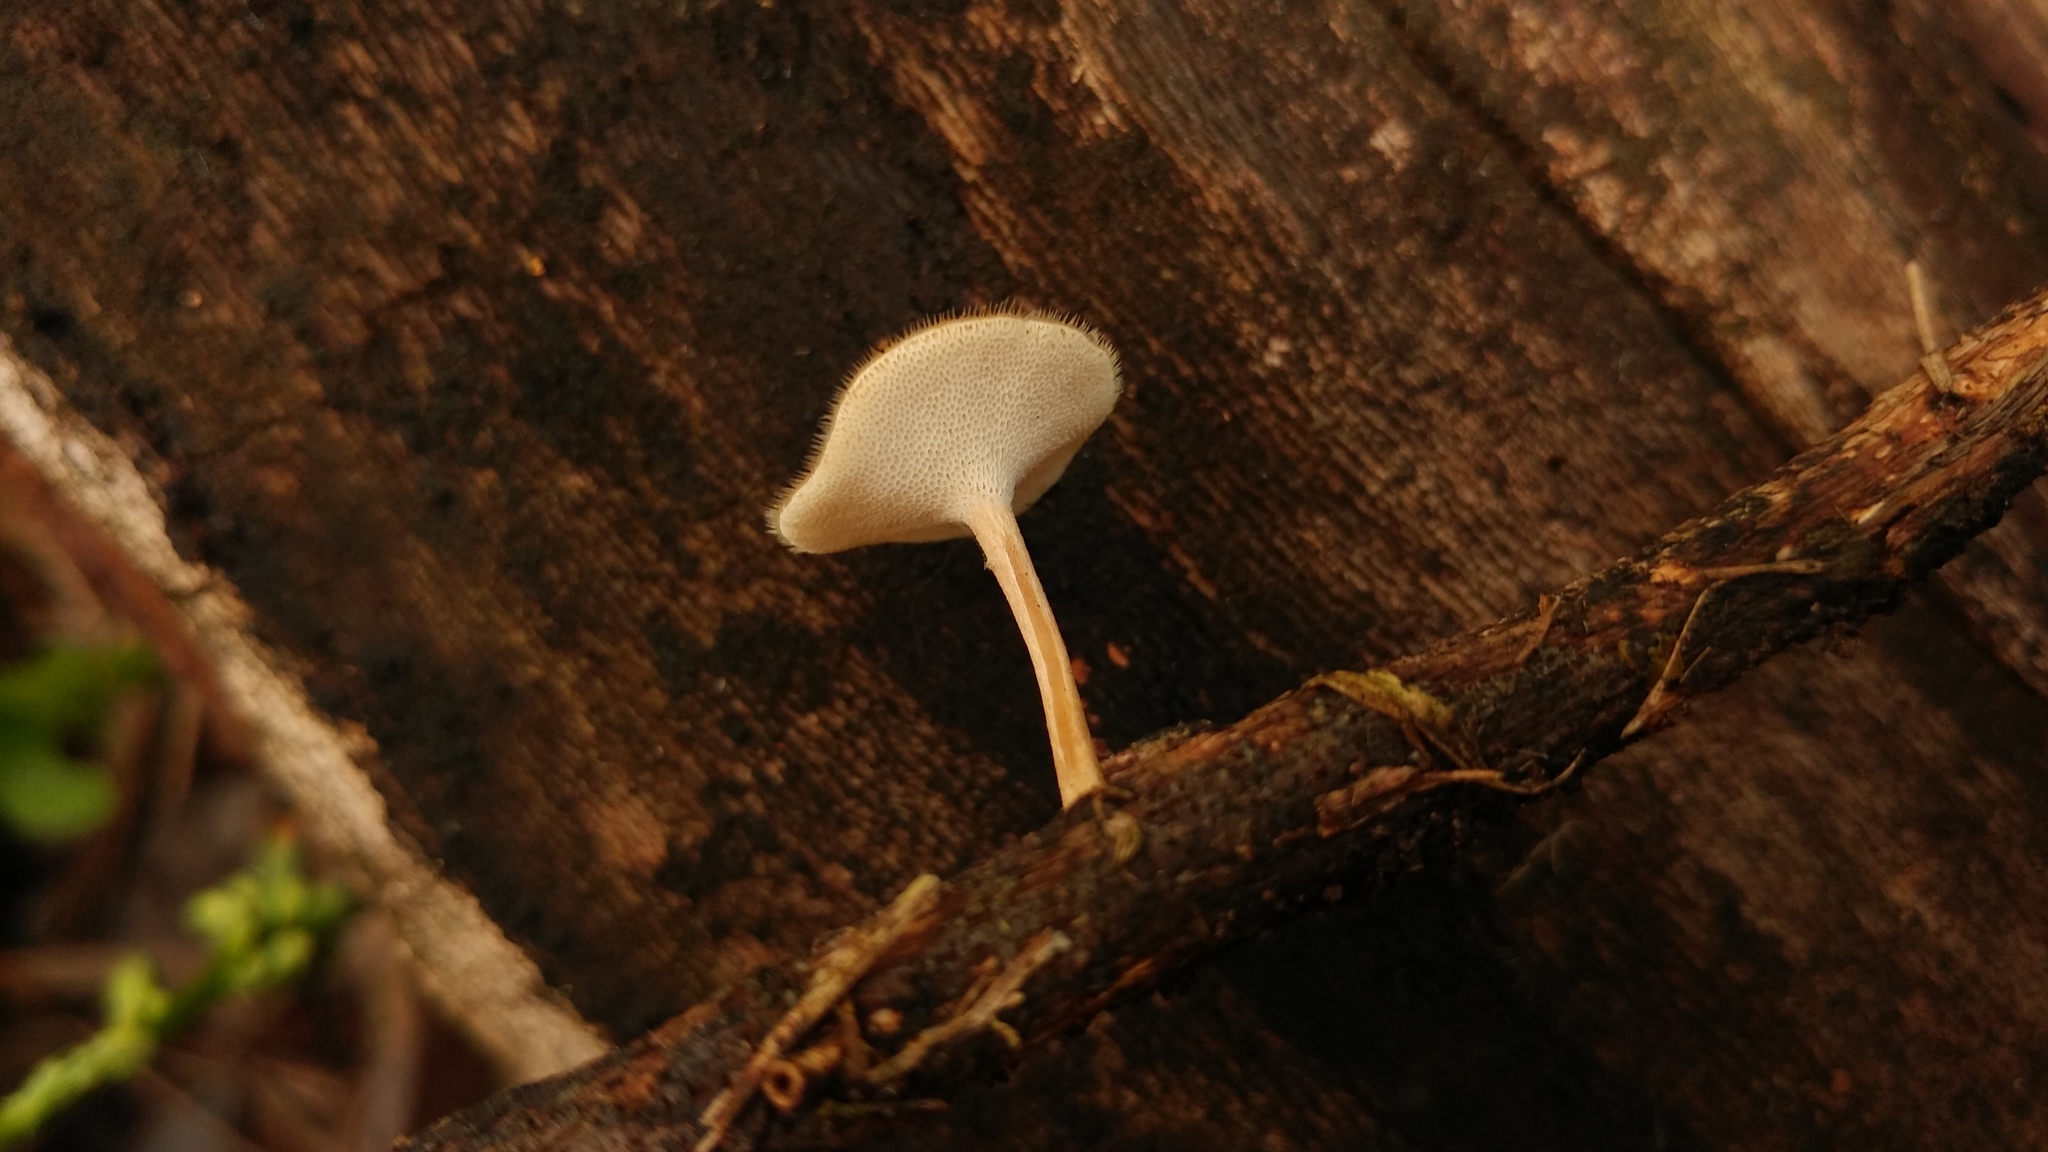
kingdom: Fungi
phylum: Basidiomycota
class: Agaricomycetes
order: Polyporales
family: Polyporaceae
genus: Lentinus
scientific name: Lentinus flexipes
